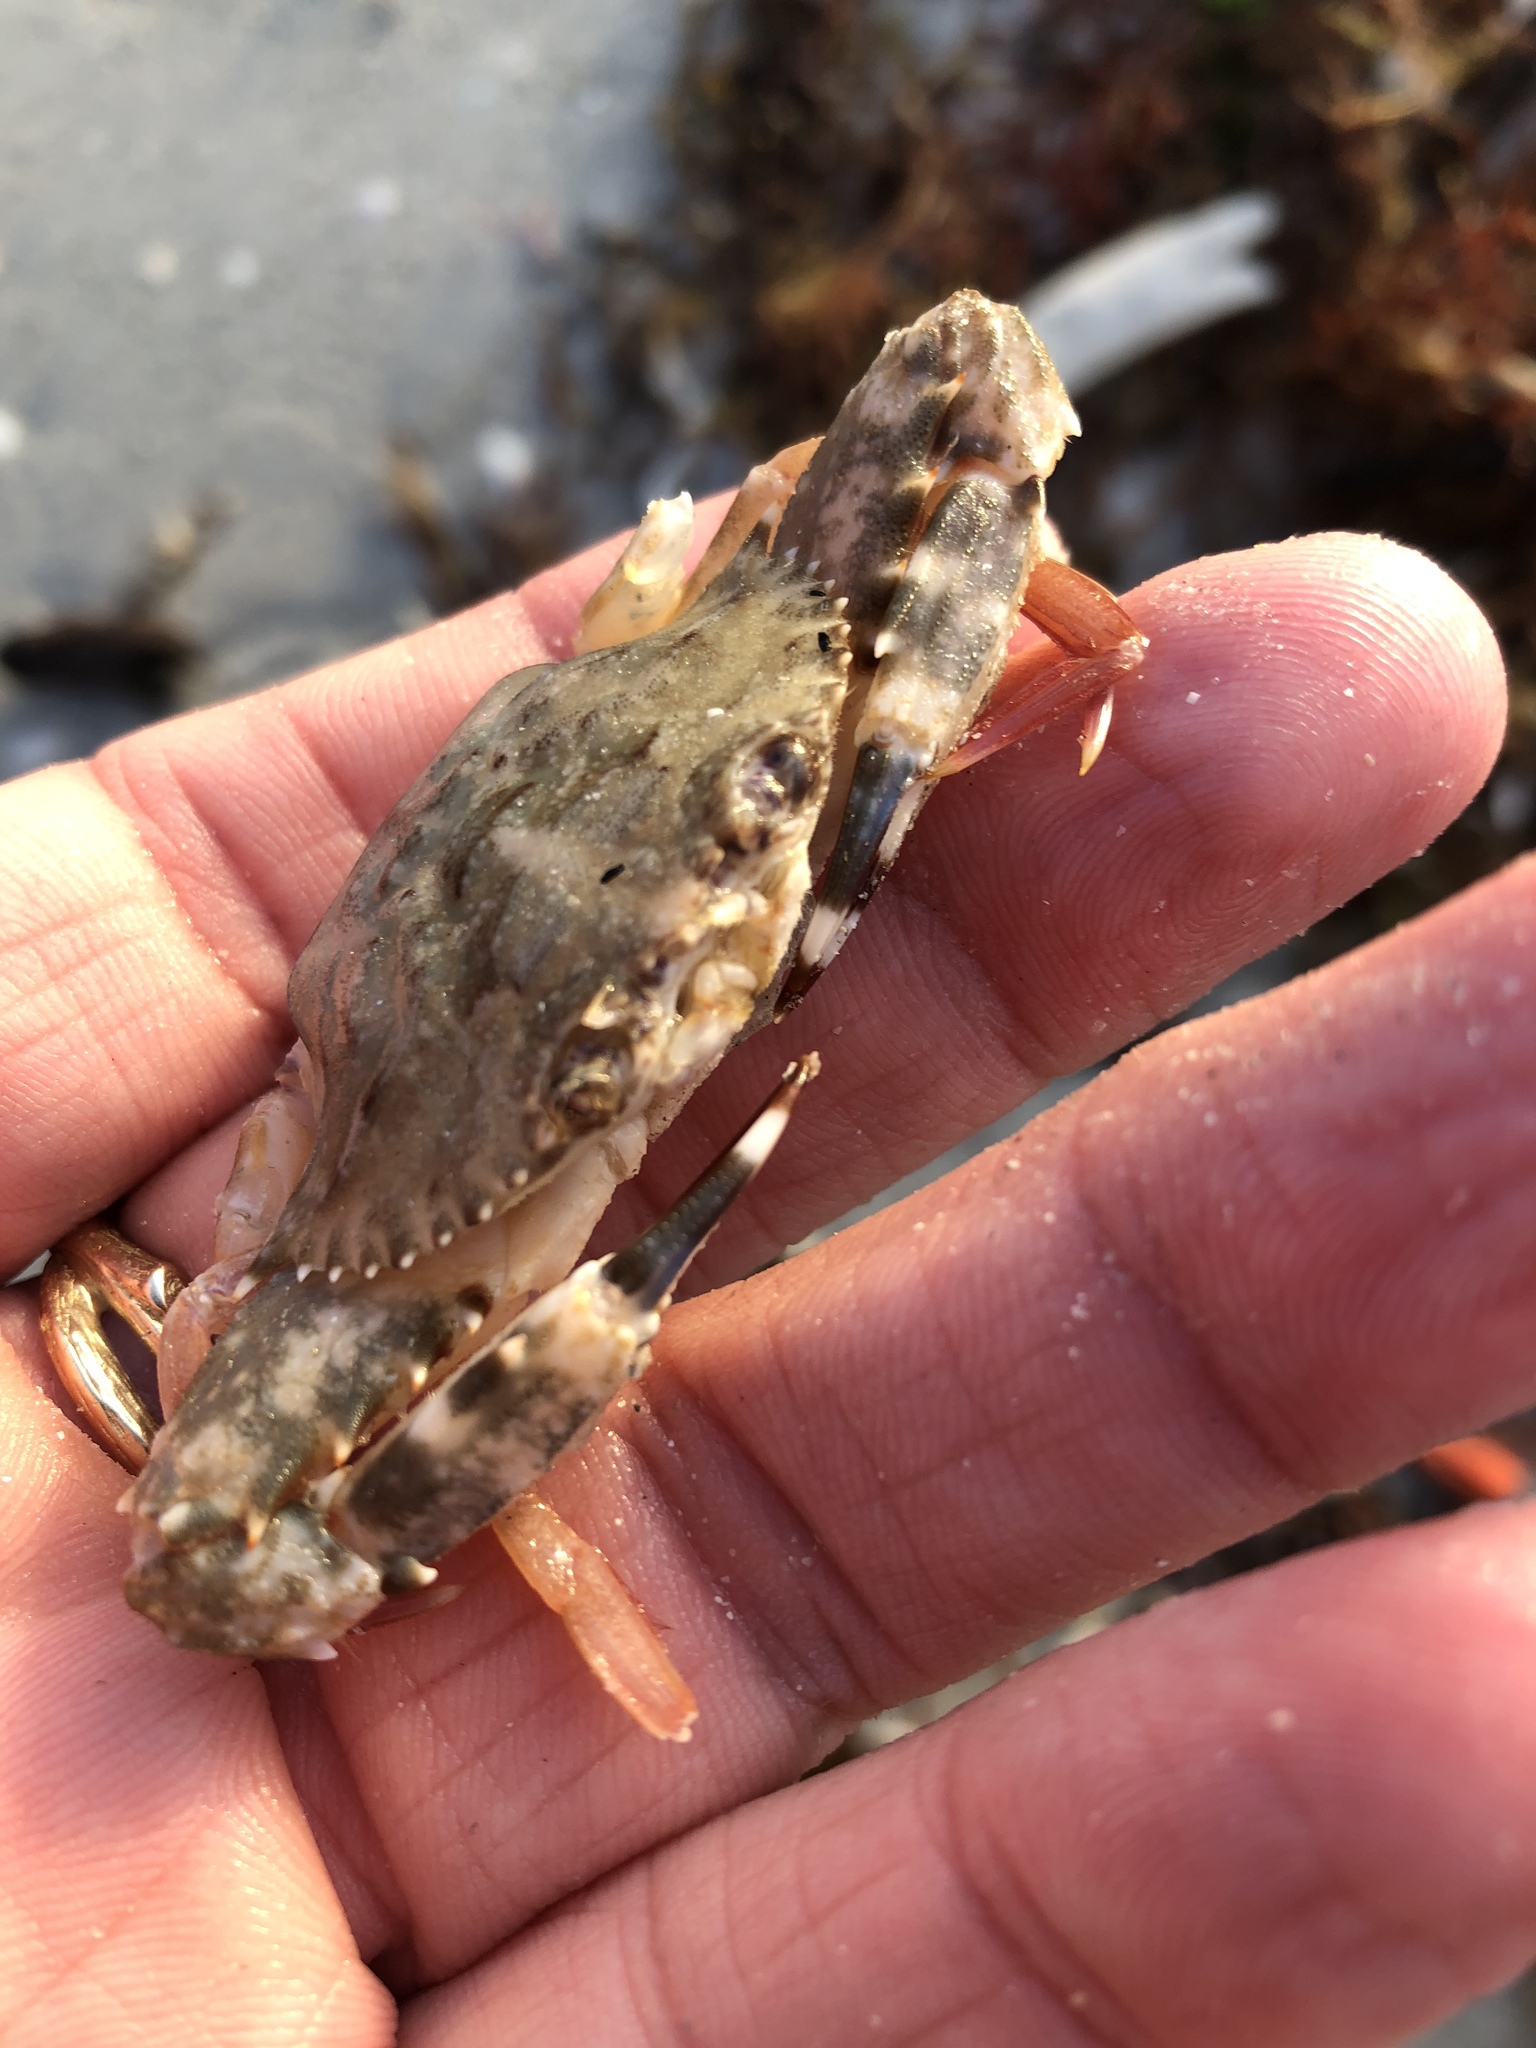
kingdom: Animalia
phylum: Arthropoda
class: Malacostraca
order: Decapoda
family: Portunidae
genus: Achelous
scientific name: Achelous spinimanus
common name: Spiny-handed portunus
